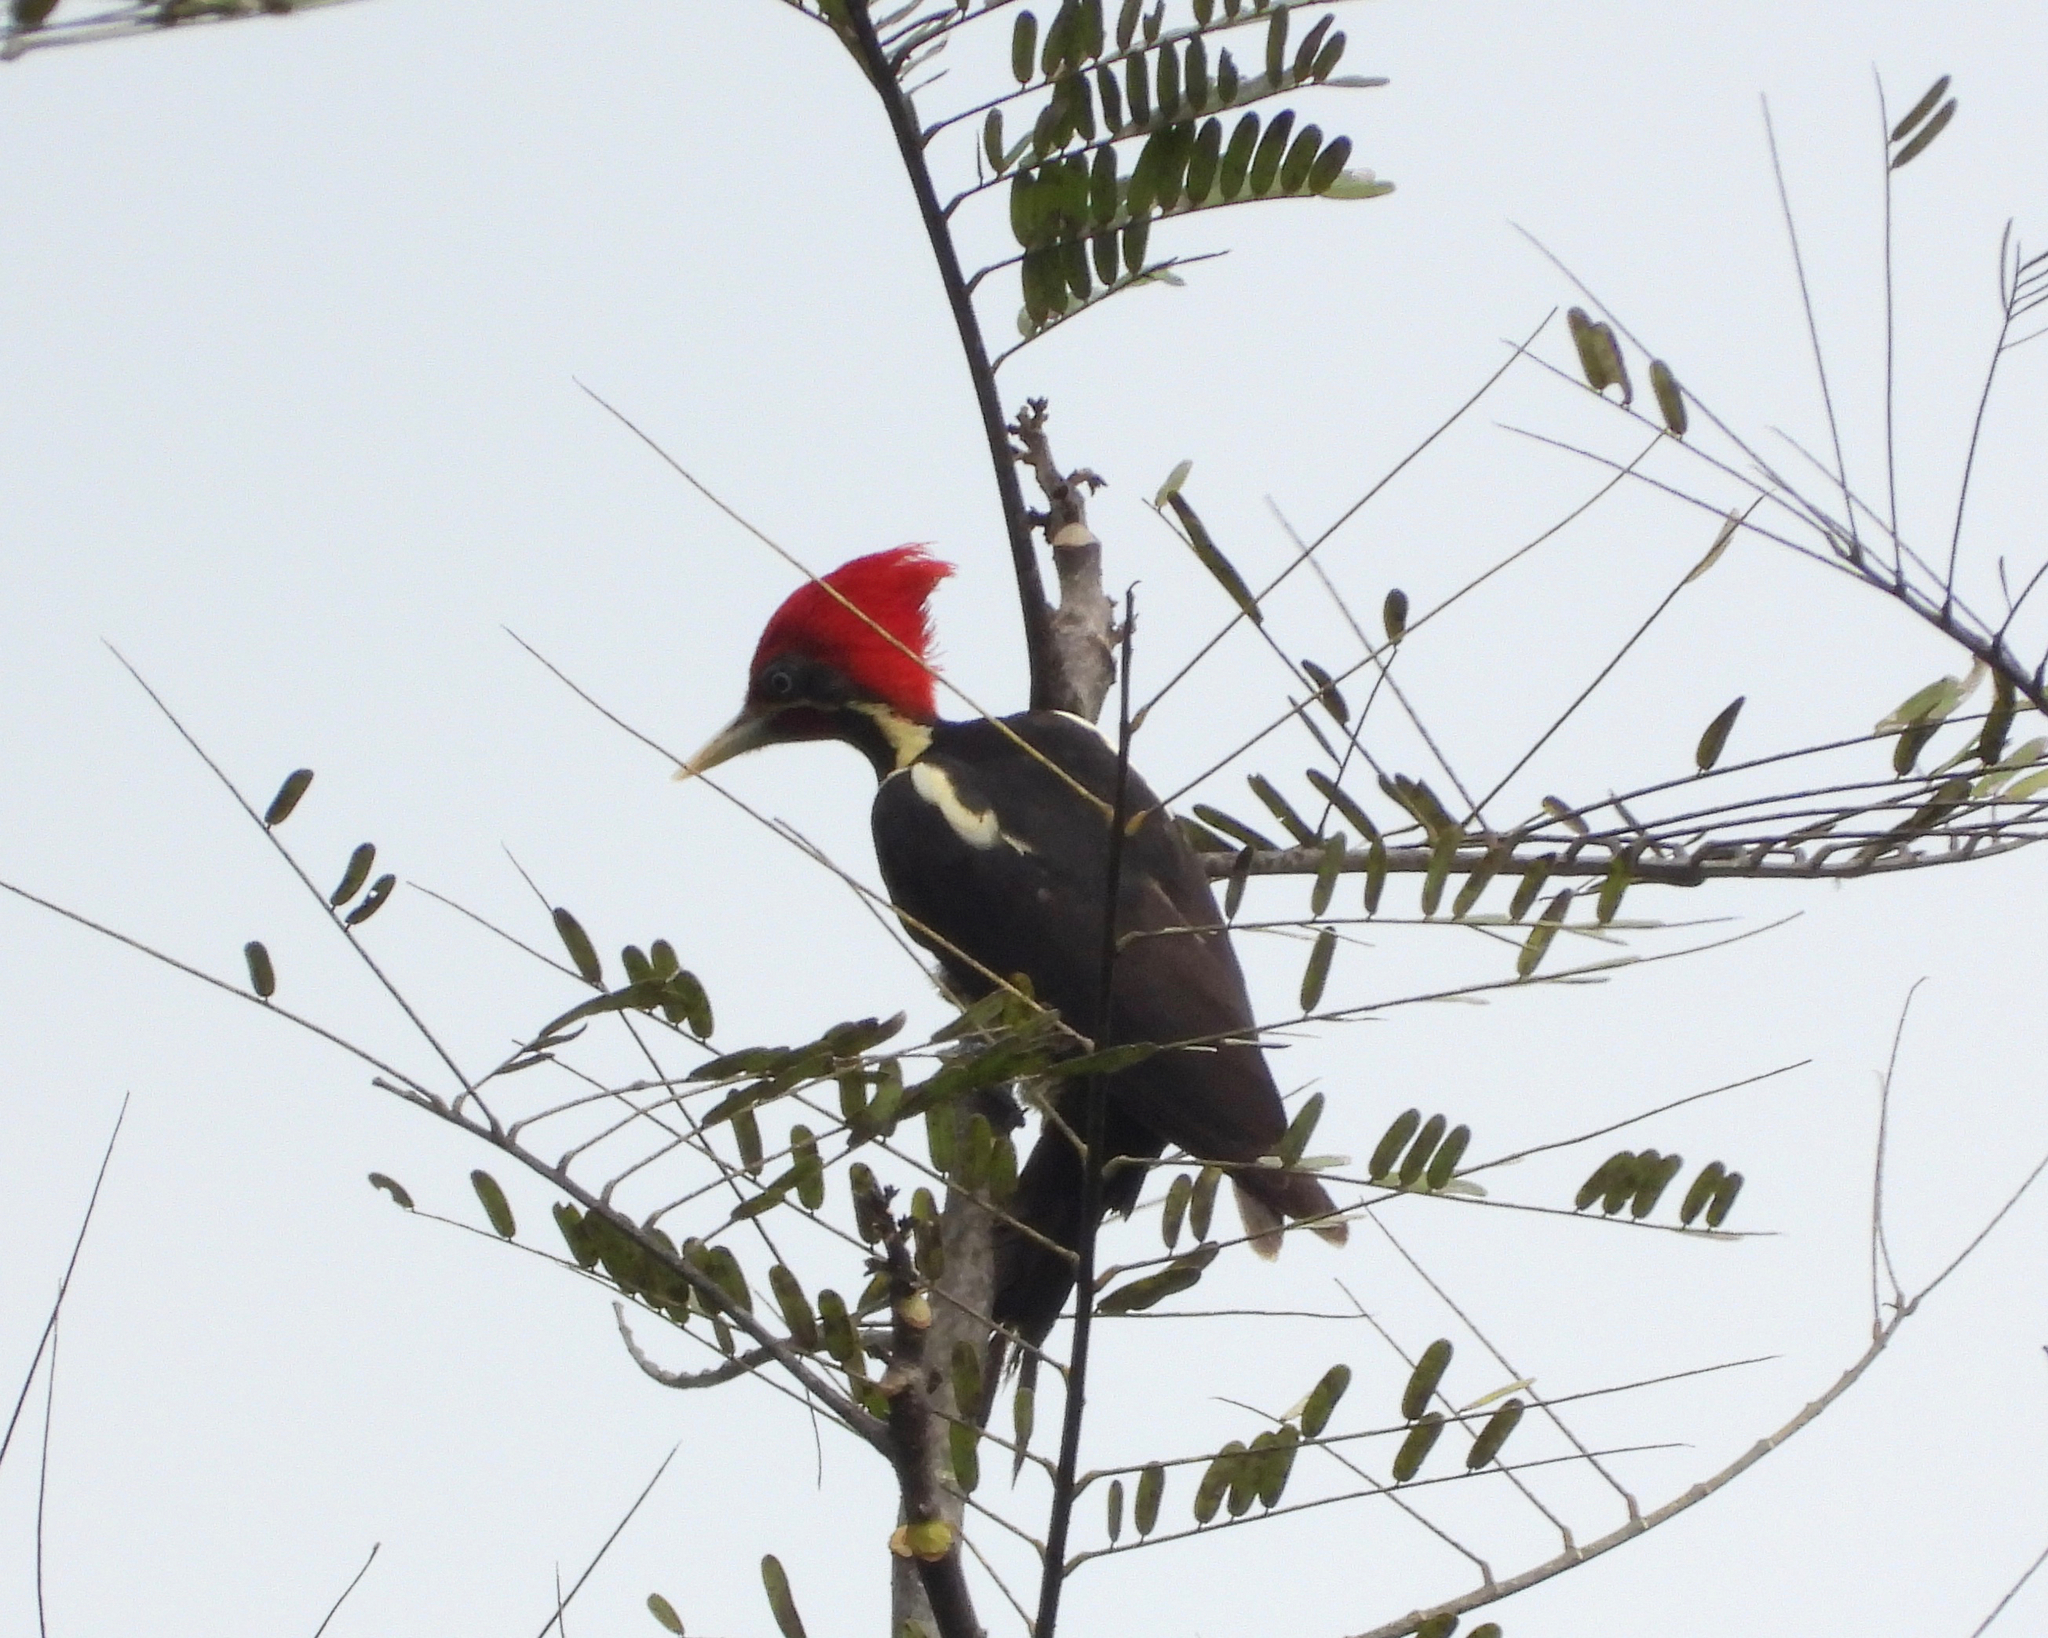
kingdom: Animalia
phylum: Chordata
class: Aves
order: Piciformes
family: Picidae
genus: Dryocopus
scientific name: Dryocopus lineatus
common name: Lineated woodpecker
